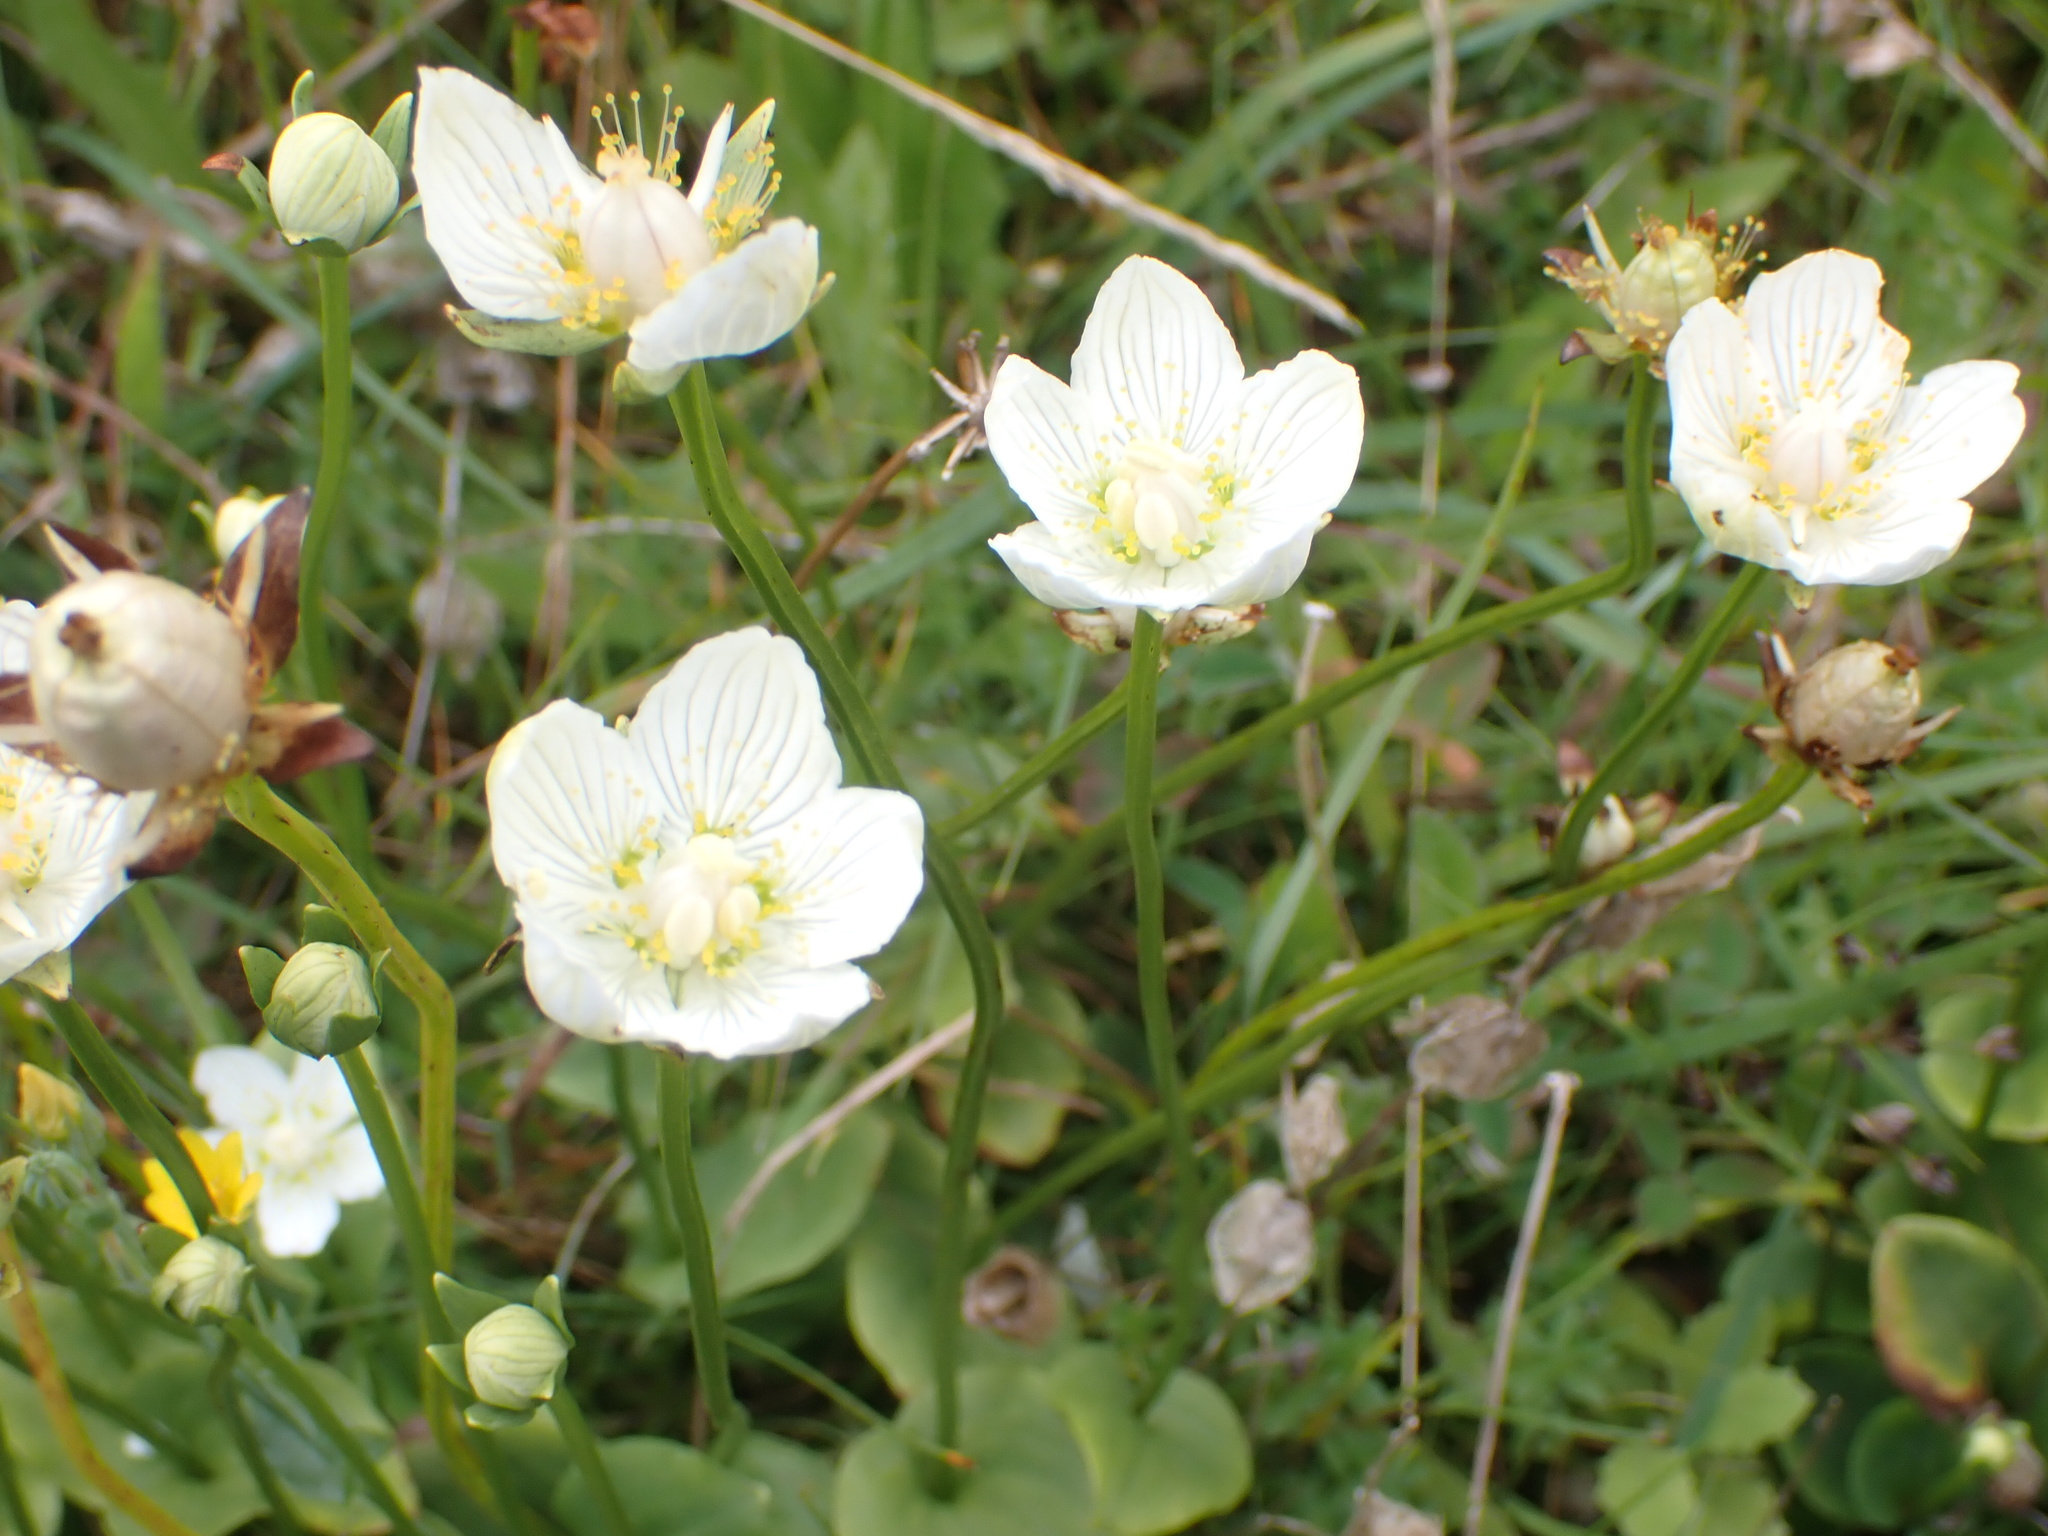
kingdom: Plantae
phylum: Tracheophyta
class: Magnoliopsida
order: Celastrales
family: Parnassiaceae
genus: Parnassia
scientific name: Parnassia palustris
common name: Grass-of-parnassus
